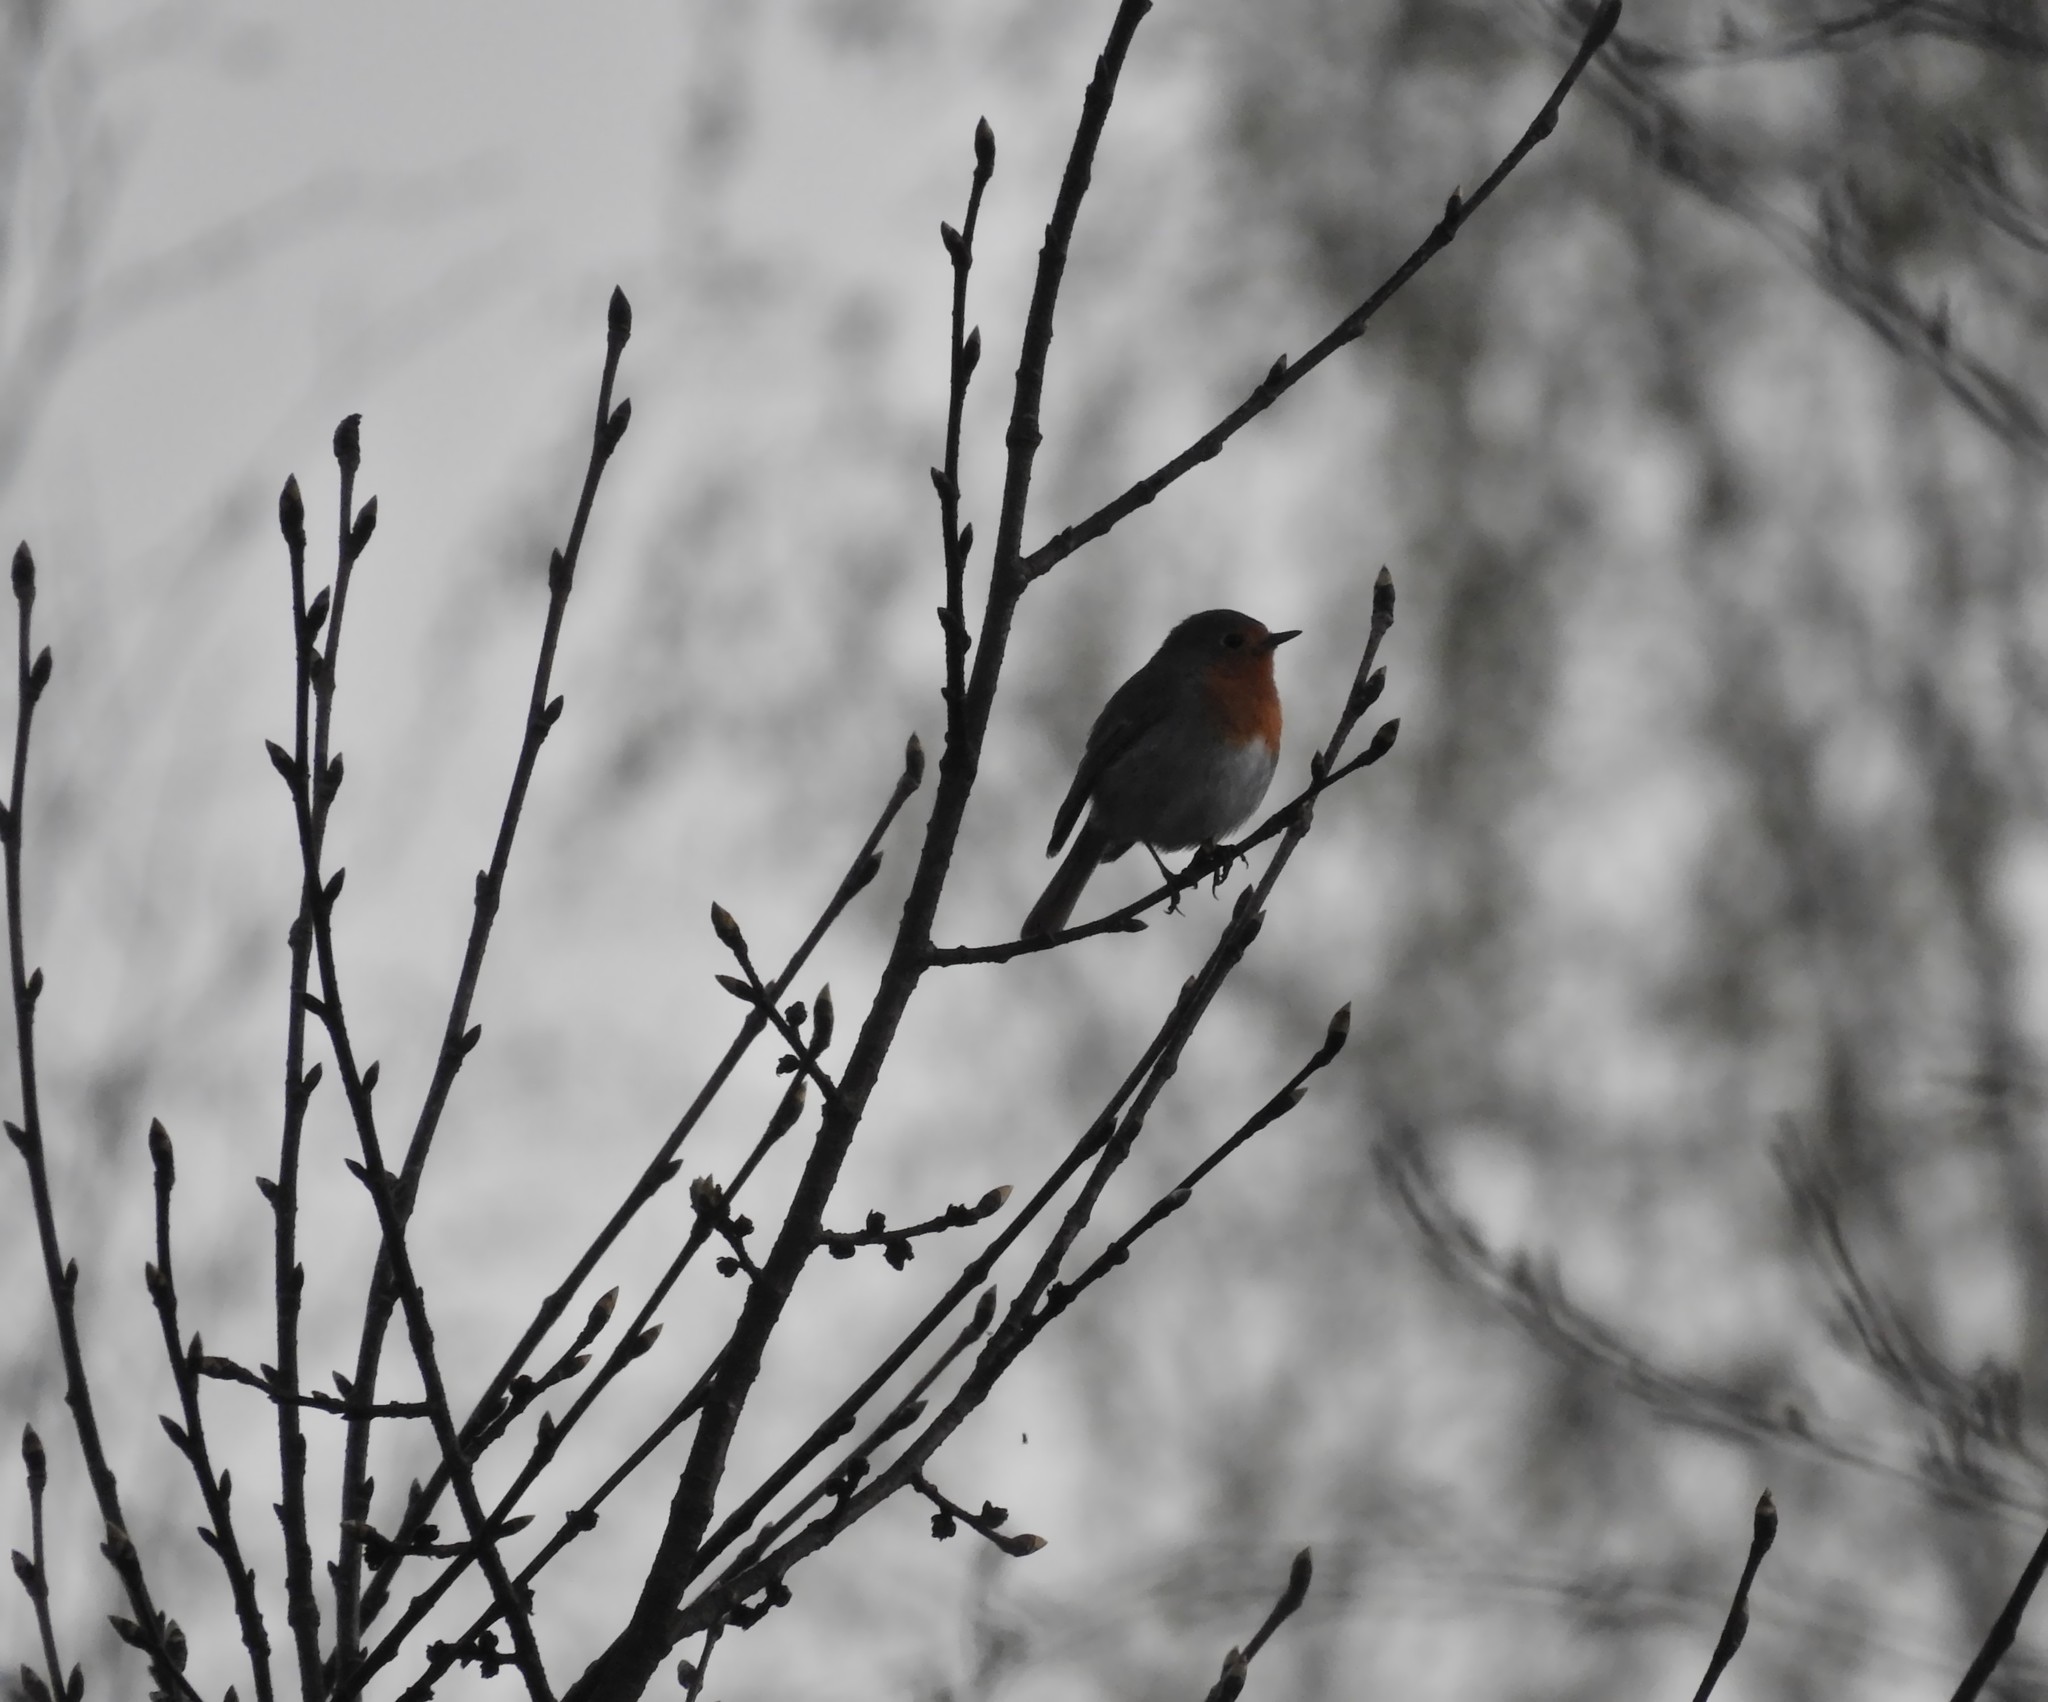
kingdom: Animalia
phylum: Chordata
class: Aves
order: Passeriformes
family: Muscicapidae
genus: Erithacus
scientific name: Erithacus rubecula
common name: European robin
